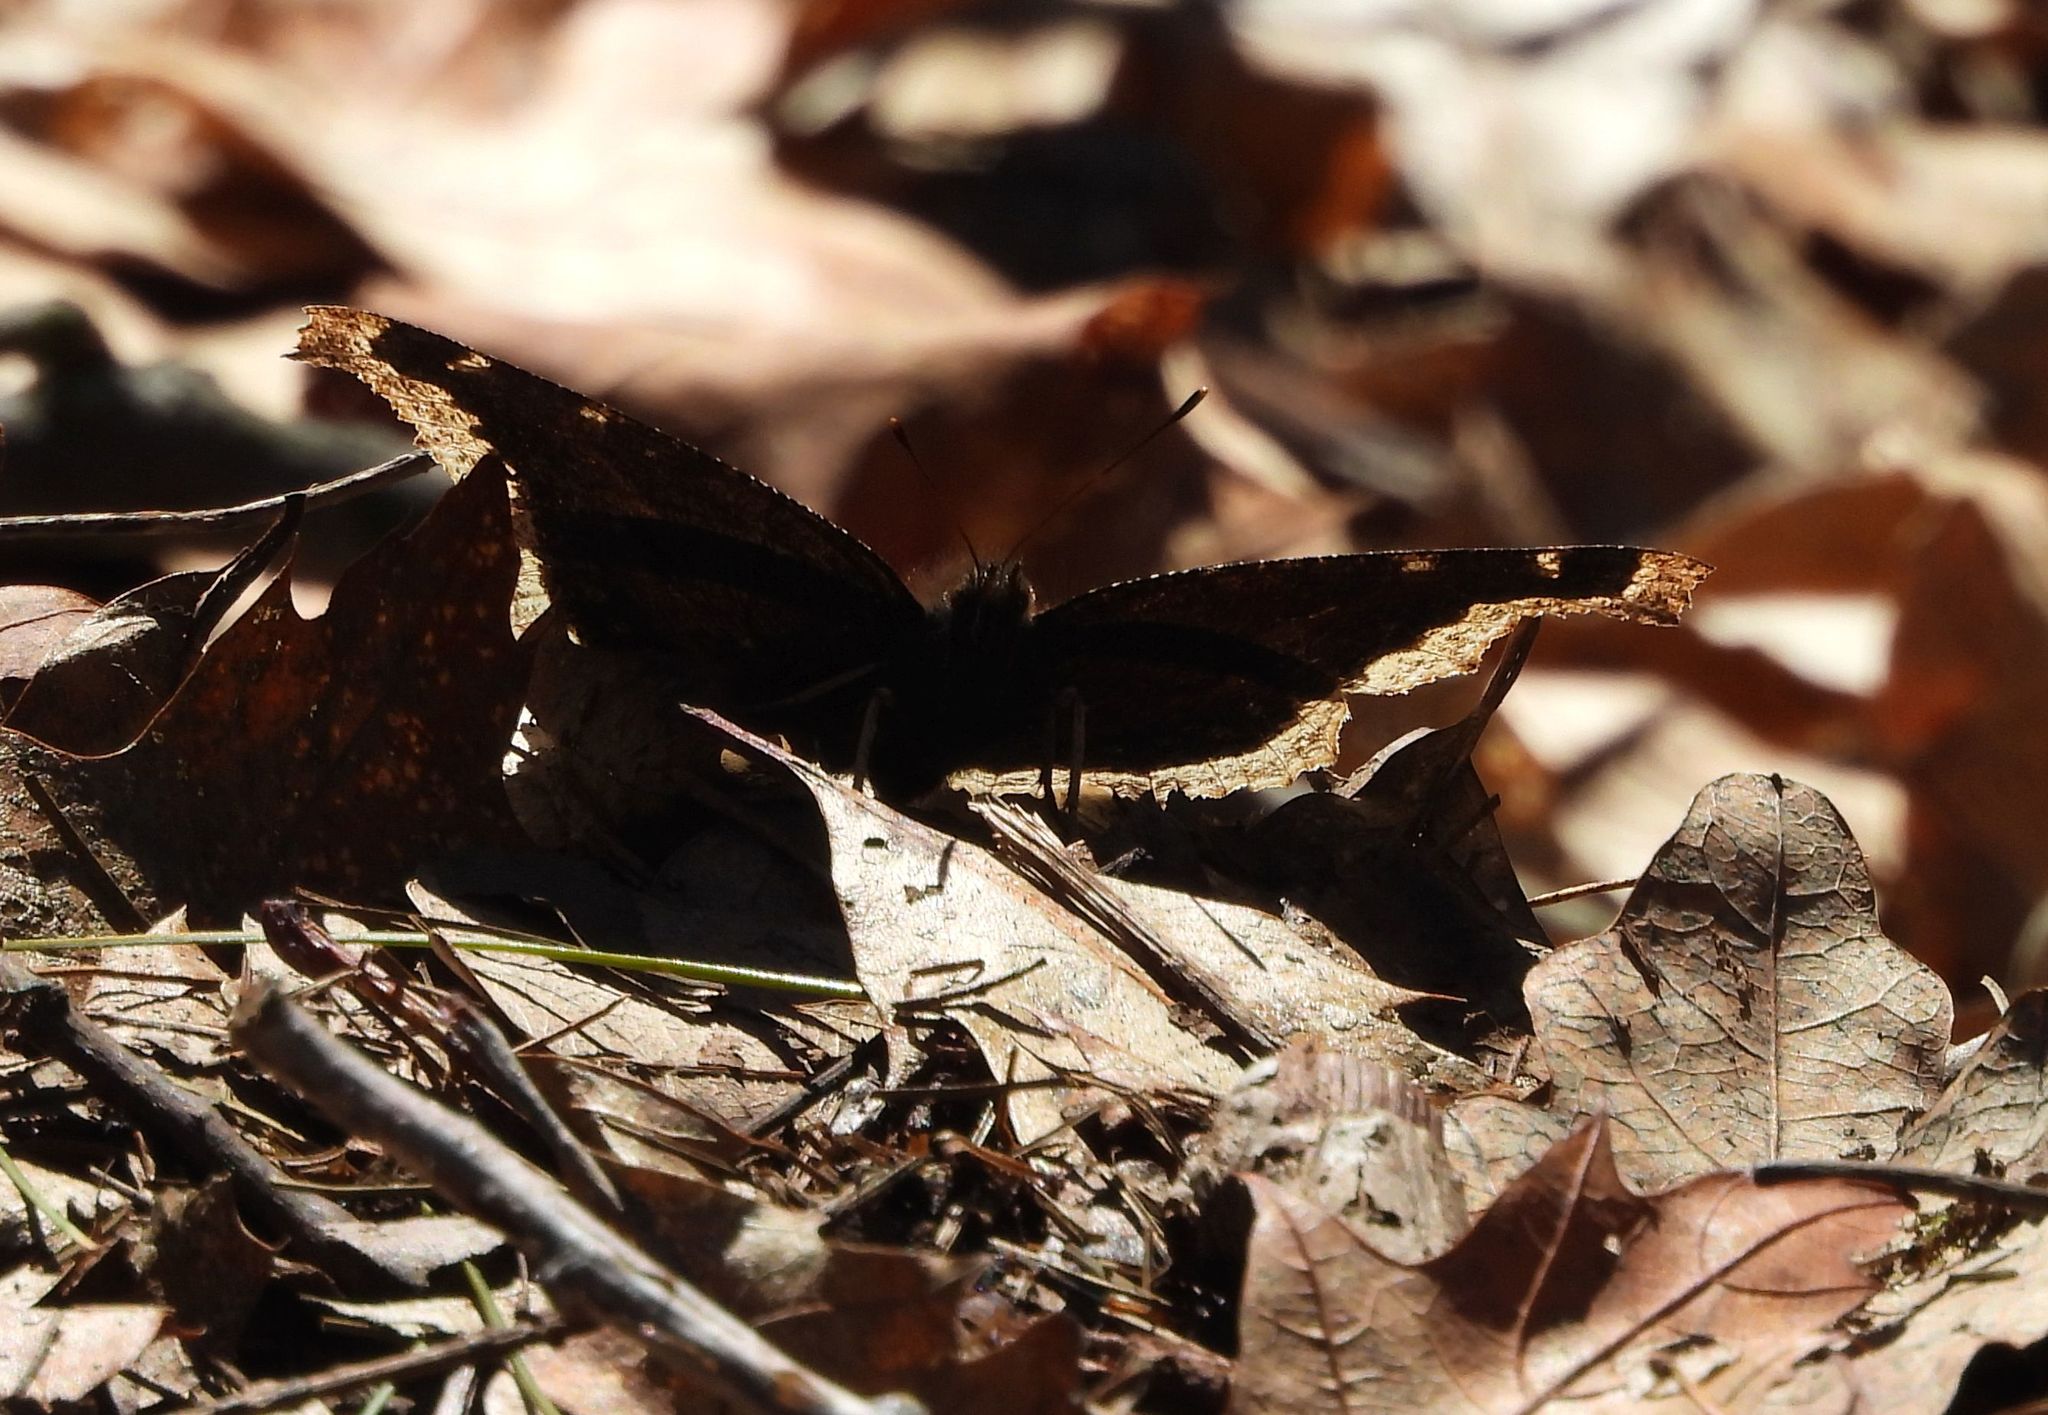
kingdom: Animalia
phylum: Arthropoda
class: Insecta
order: Lepidoptera
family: Nymphalidae
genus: Nymphalis
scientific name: Nymphalis antiopa
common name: Camberwell beauty
